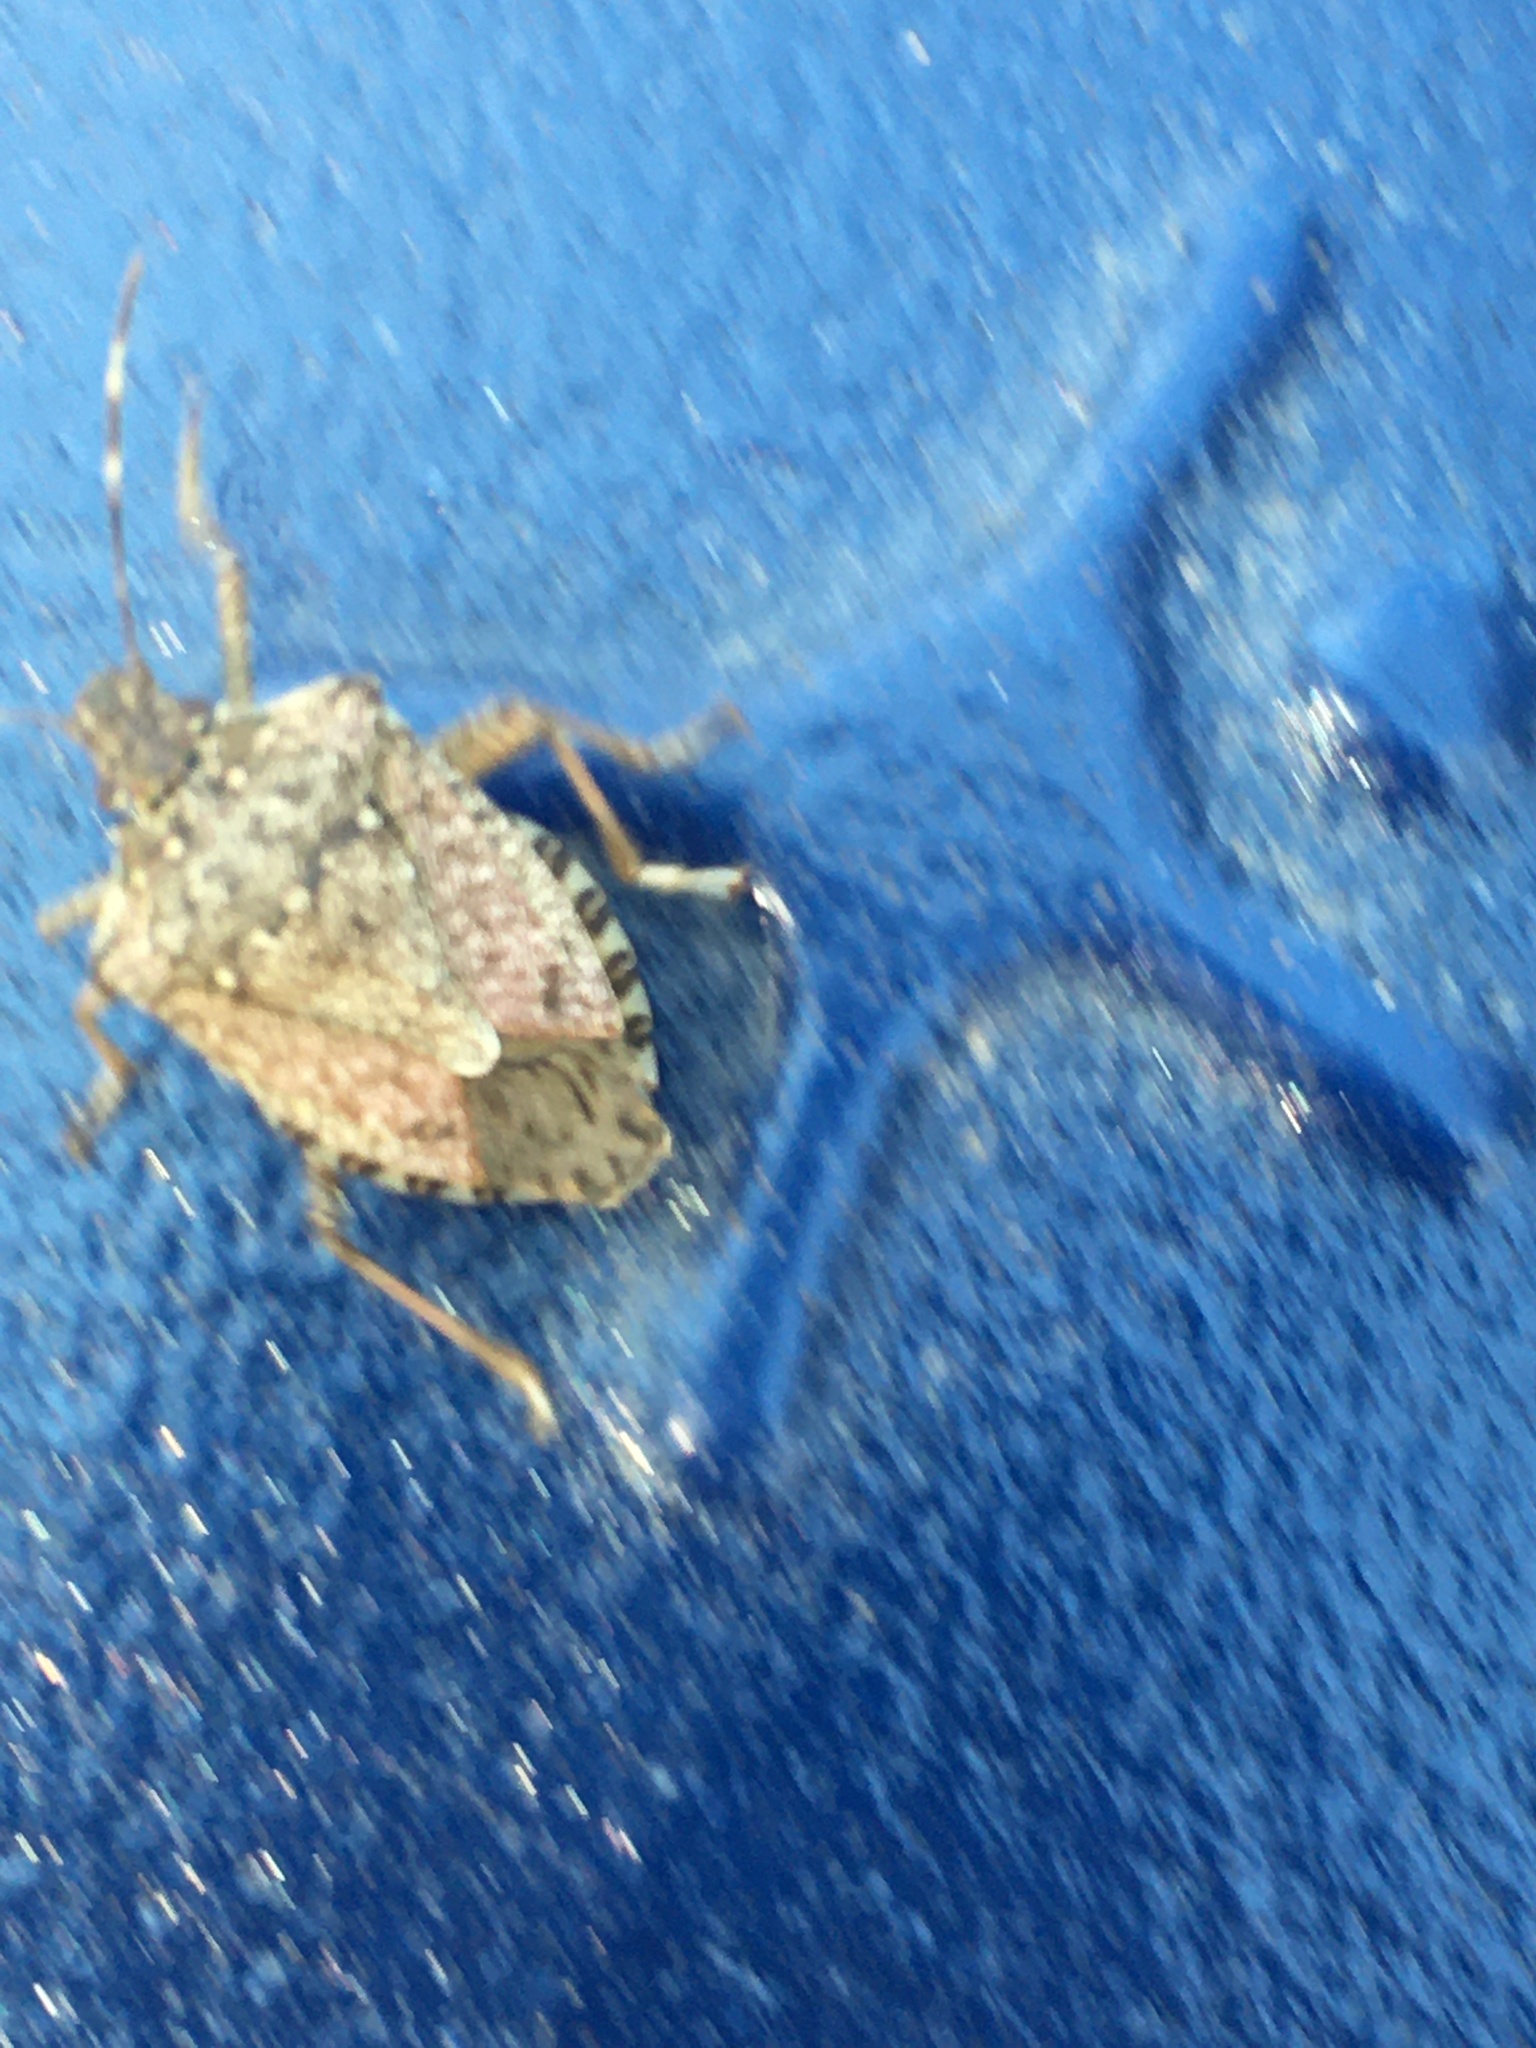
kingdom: Animalia
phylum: Arthropoda
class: Insecta
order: Hemiptera
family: Pentatomidae
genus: Halyomorpha
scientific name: Halyomorpha halys
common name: Brown marmorated stink bug
